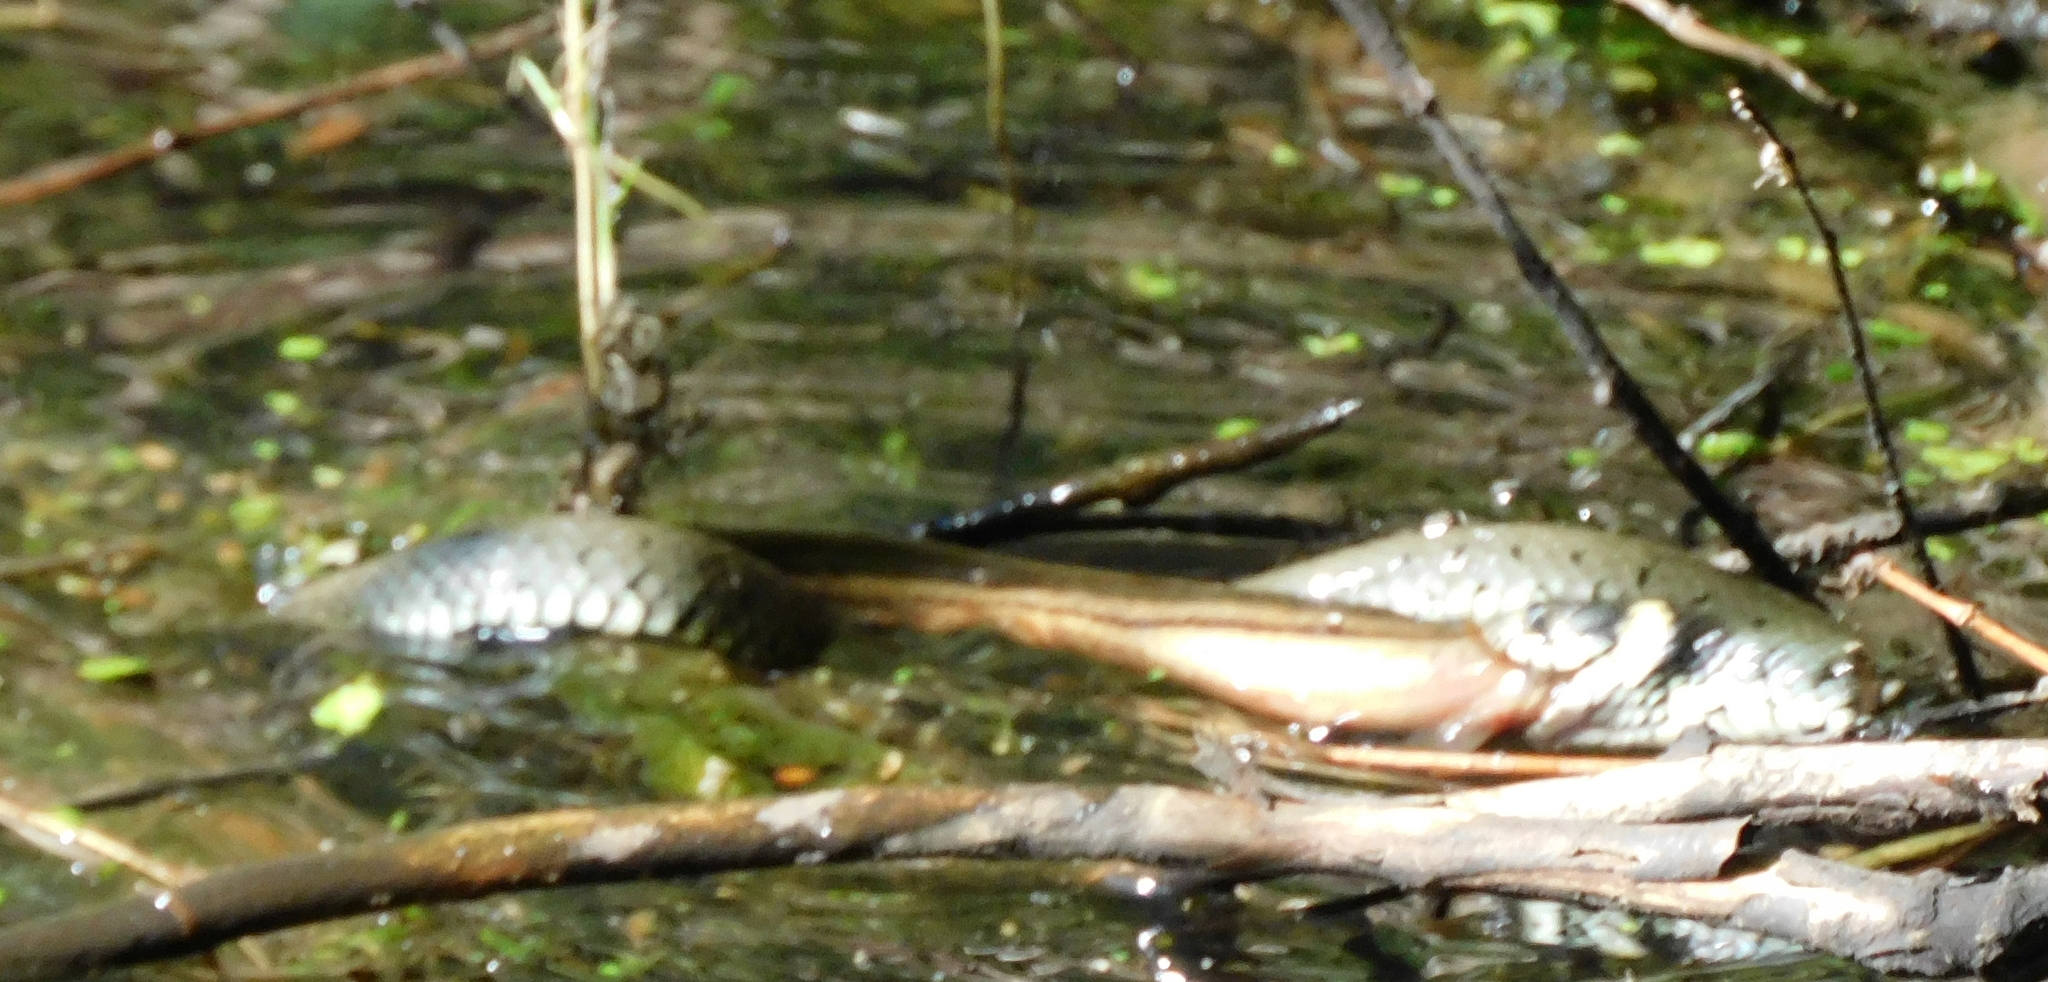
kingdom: Animalia
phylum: Chordata
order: Cypriniformes
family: Cobitidae
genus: Misgurnus
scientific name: Misgurnus fossilis
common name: Weatherfish
